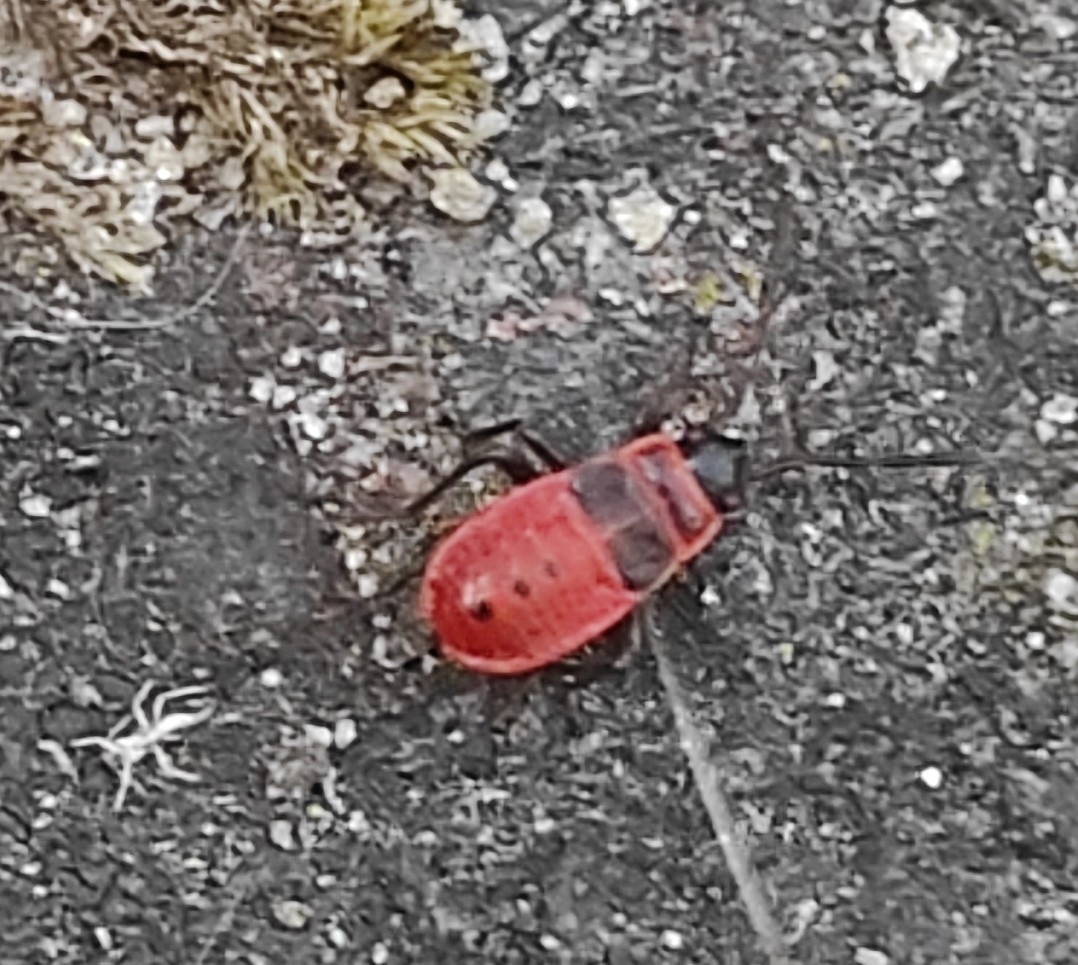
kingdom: Animalia
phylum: Arthropoda
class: Insecta
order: Hemiptera
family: Pyrrhocoridae
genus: Pyrrhocoris
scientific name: Pyrrhocoris apterus
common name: Firebug
